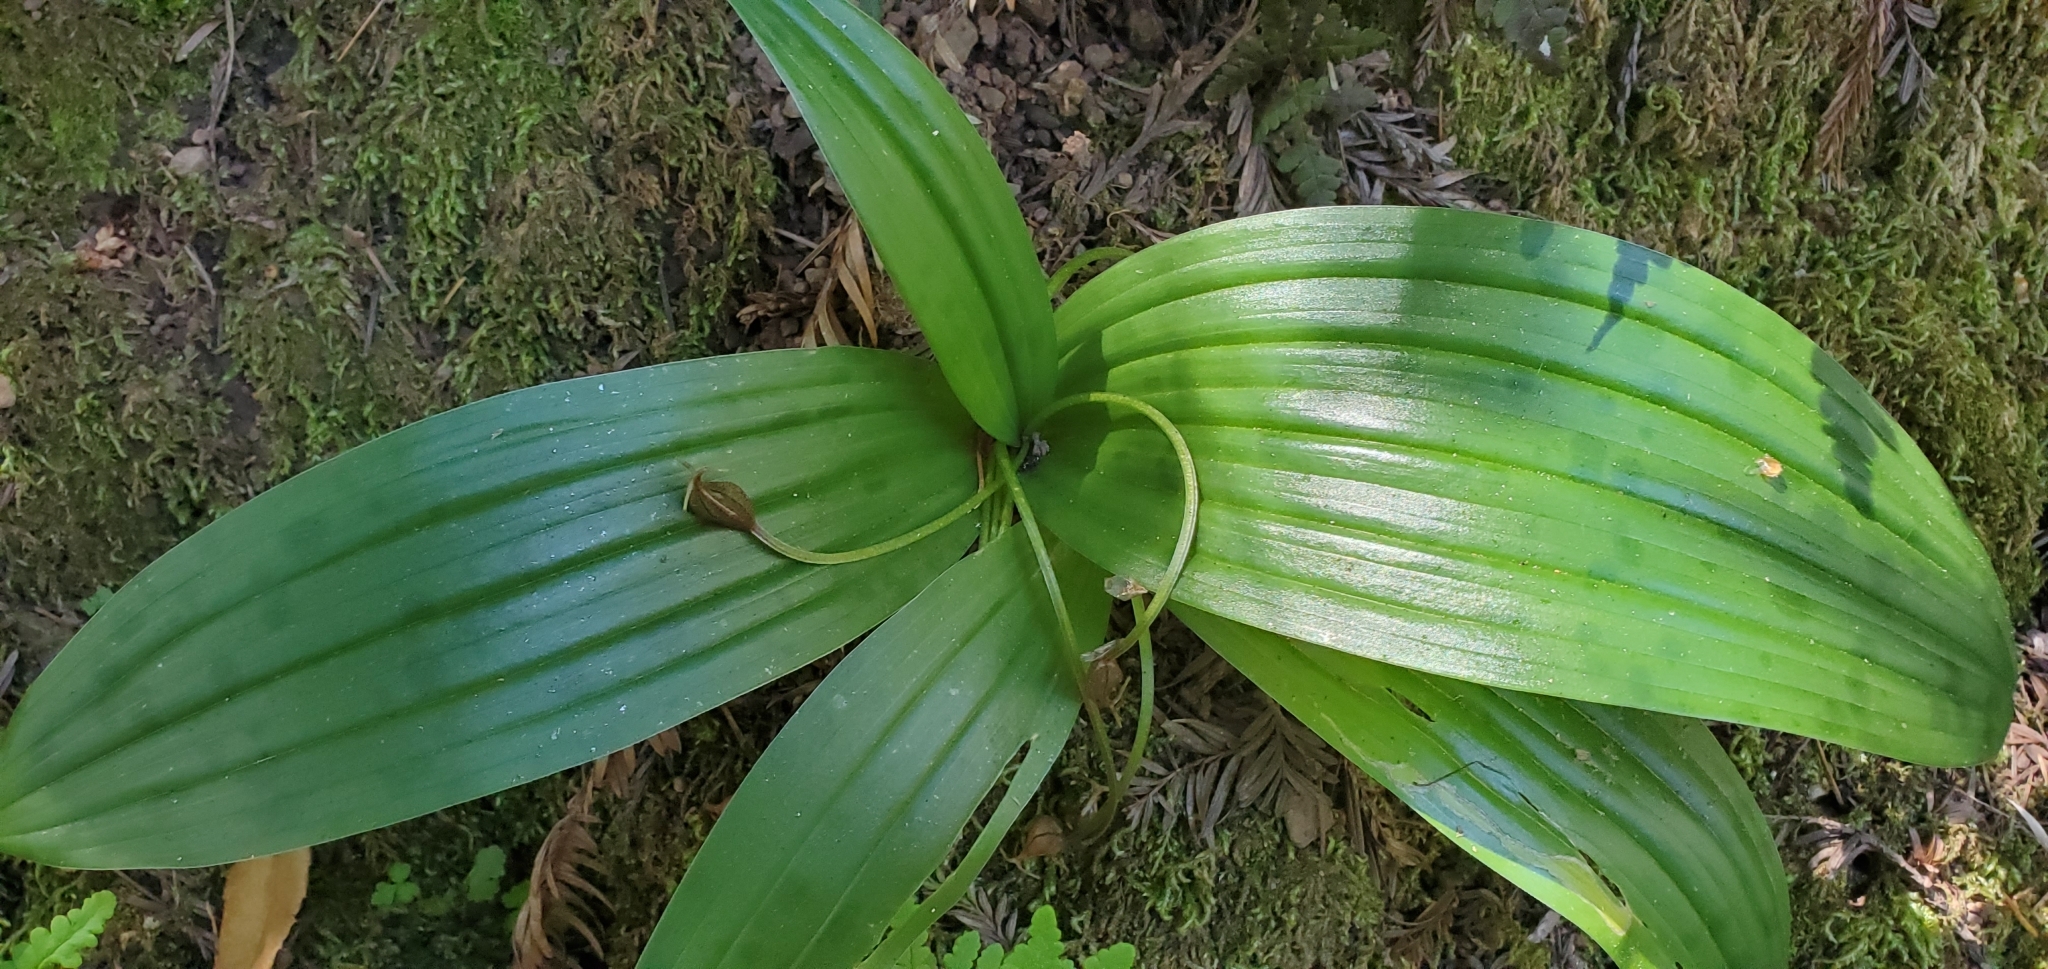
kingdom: Plantae
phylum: Tracheophyta
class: Liliopsida
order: Liliales
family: Liliaceae
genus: Scoliopus
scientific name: Scoliopus bigelovii
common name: Foetid adder's-tongue
